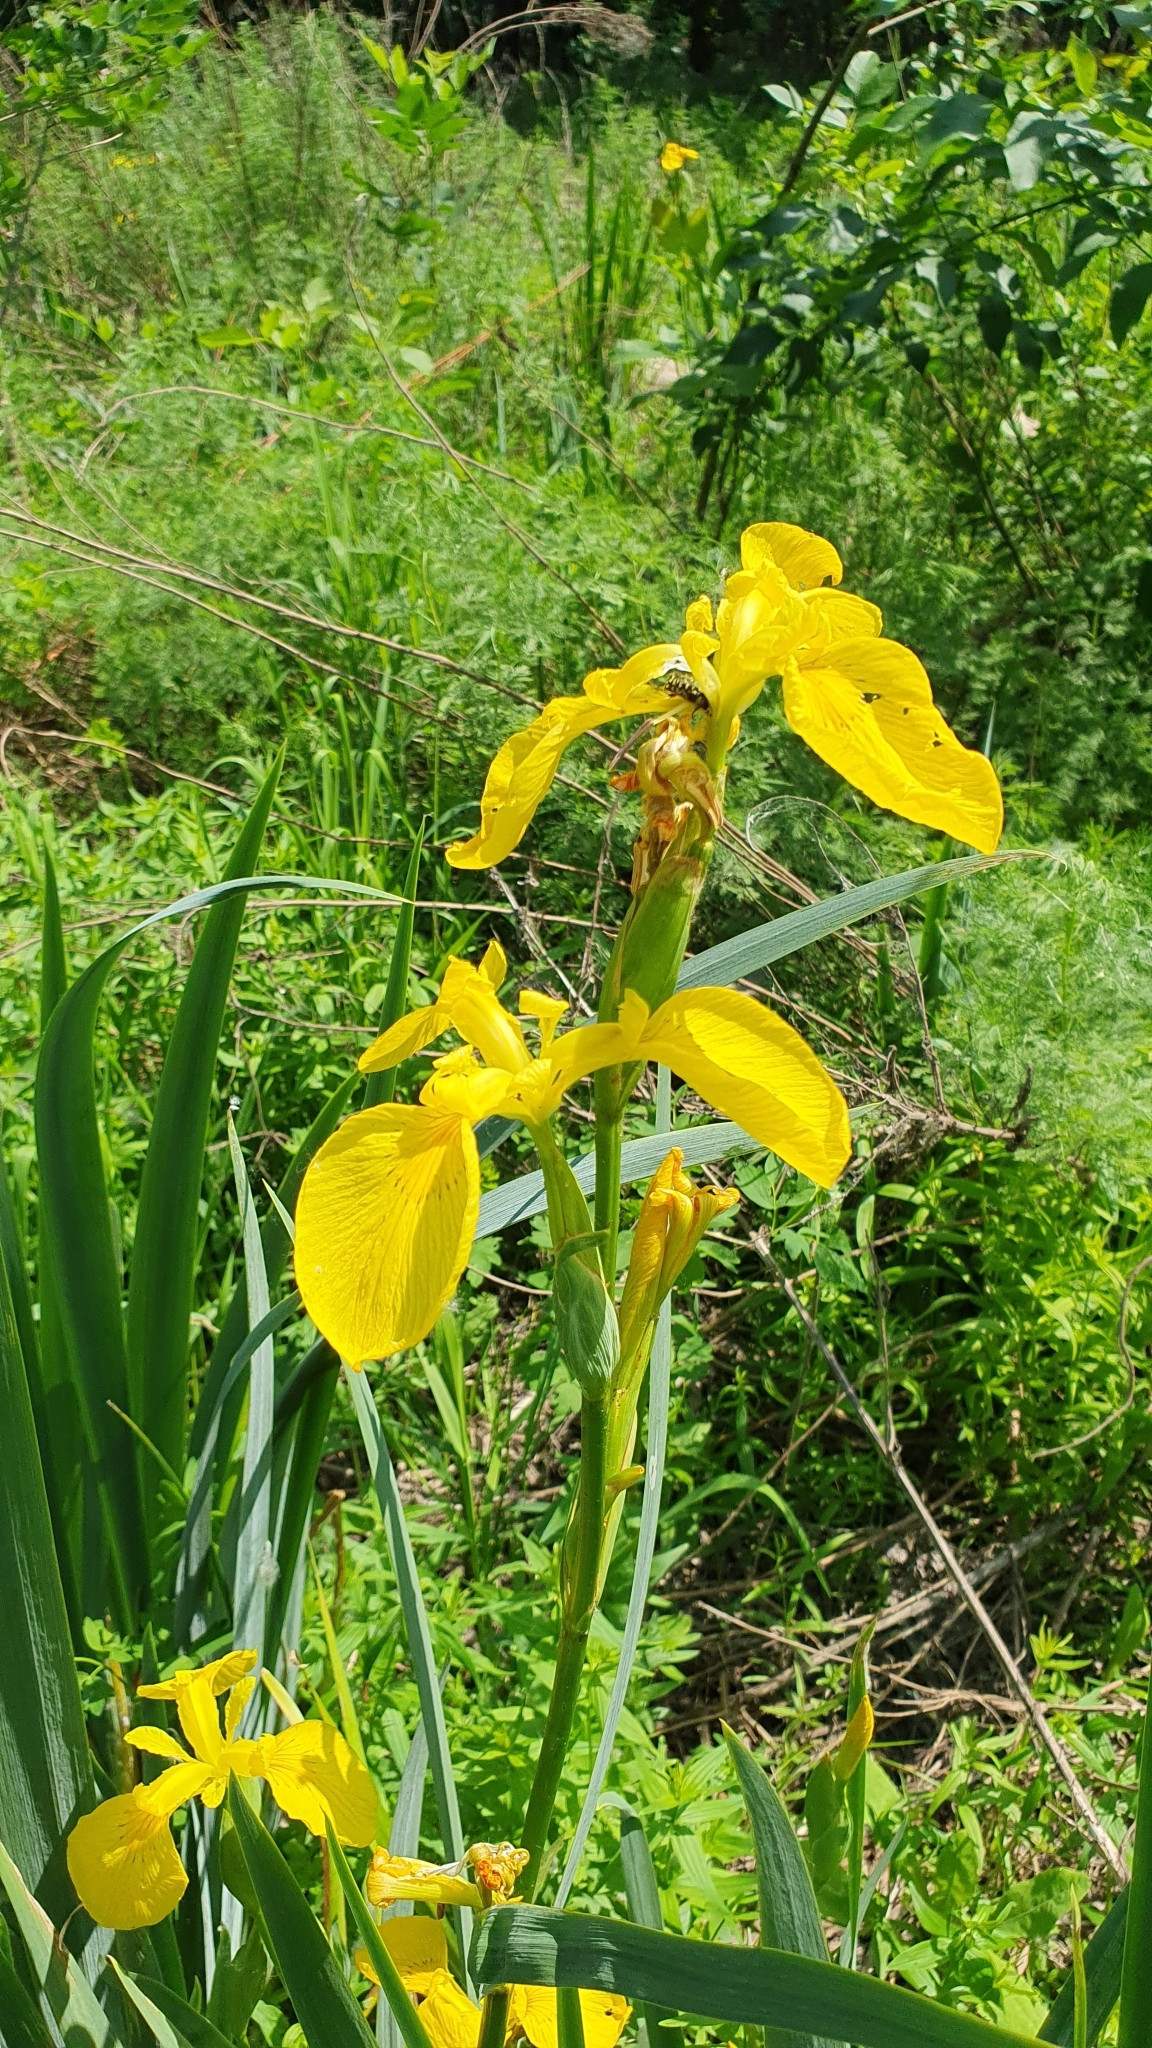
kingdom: Plantae
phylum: Tracheophyta
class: Liliopsida
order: Asparagales
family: Iridaceae
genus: Iris
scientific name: Iris pseudacorus
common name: Yellow flag
